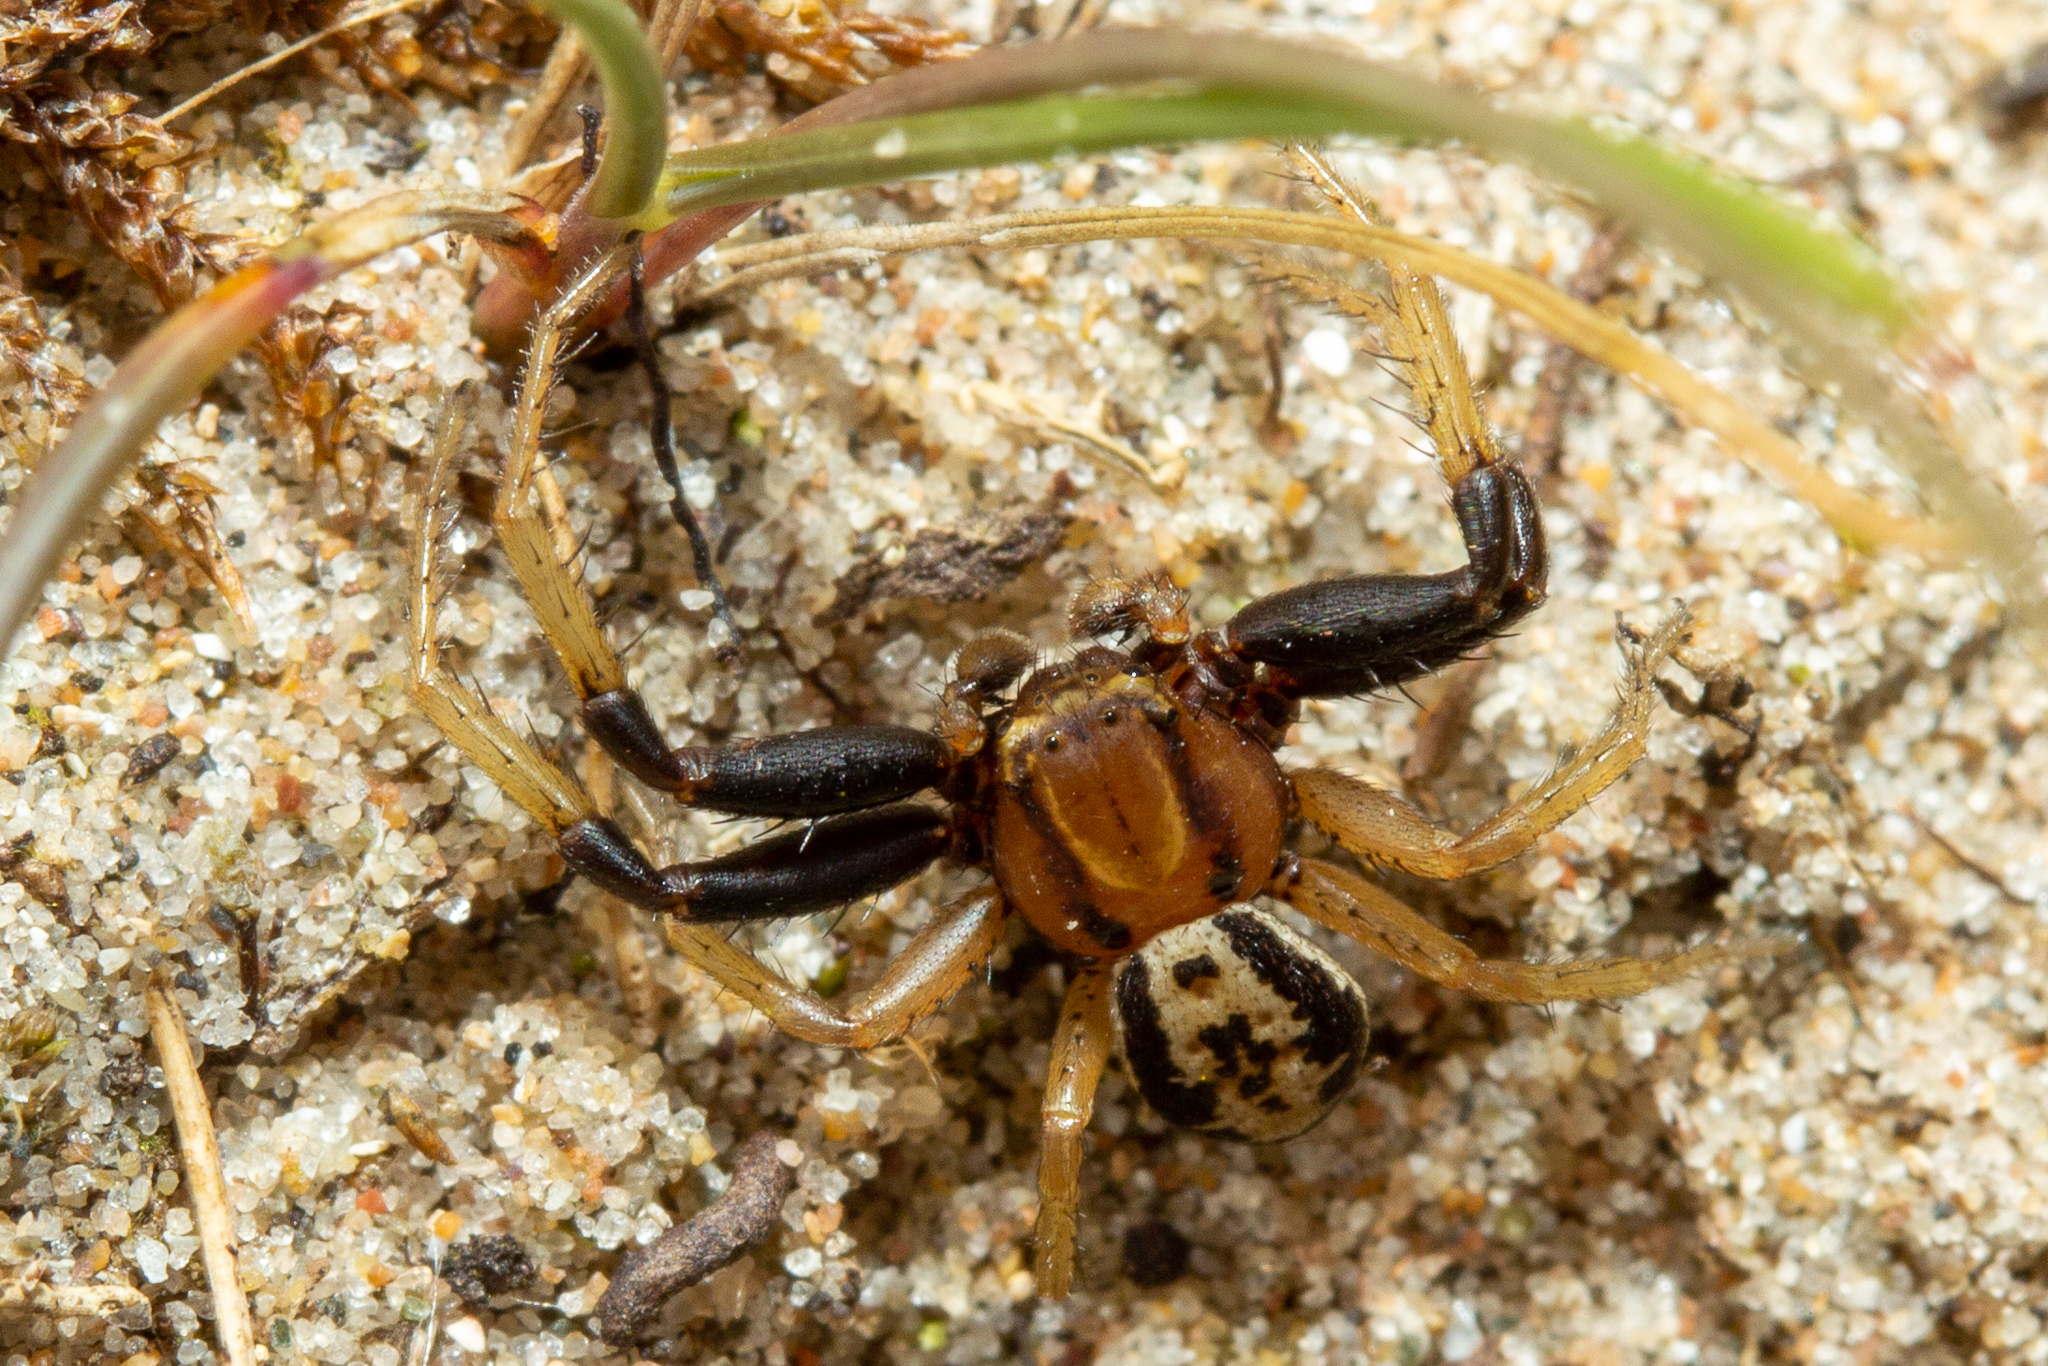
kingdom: Animalia
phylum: Arthropoda
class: Arachnida
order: Araneae
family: Thomisidae
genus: Xysticus
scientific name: Xysticus erraticus
